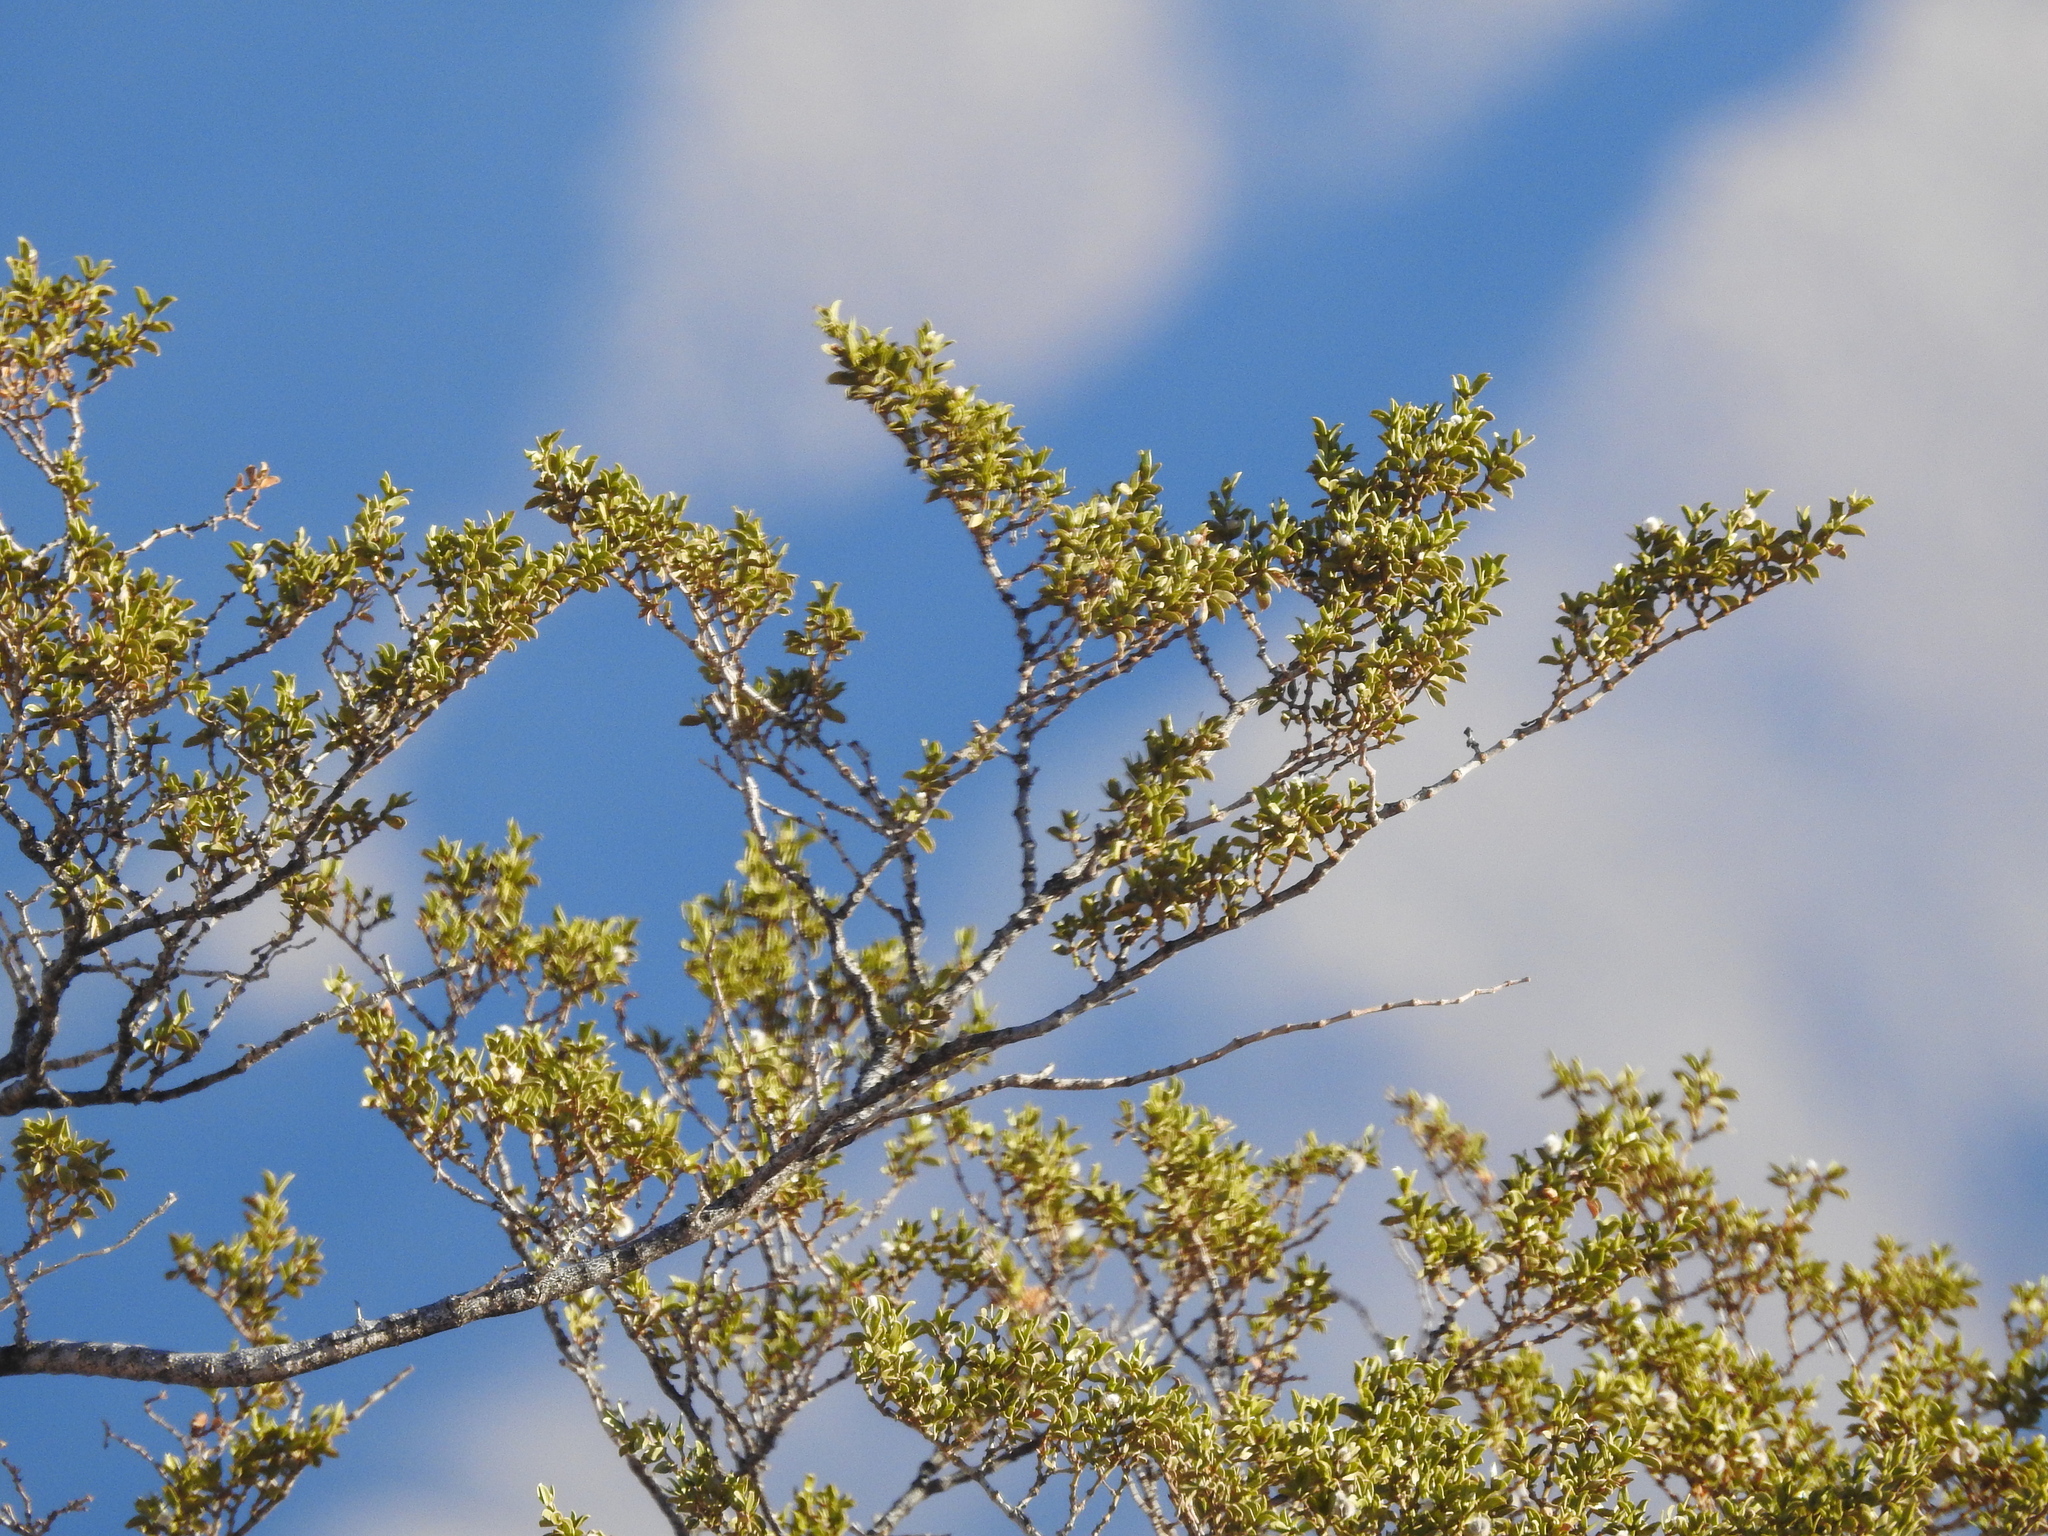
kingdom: Plantae
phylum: Tracheophyta
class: Magnoliopsida
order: Zygophyllales
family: Zygophyllaceae
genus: Larrea
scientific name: Larrea tridentata
